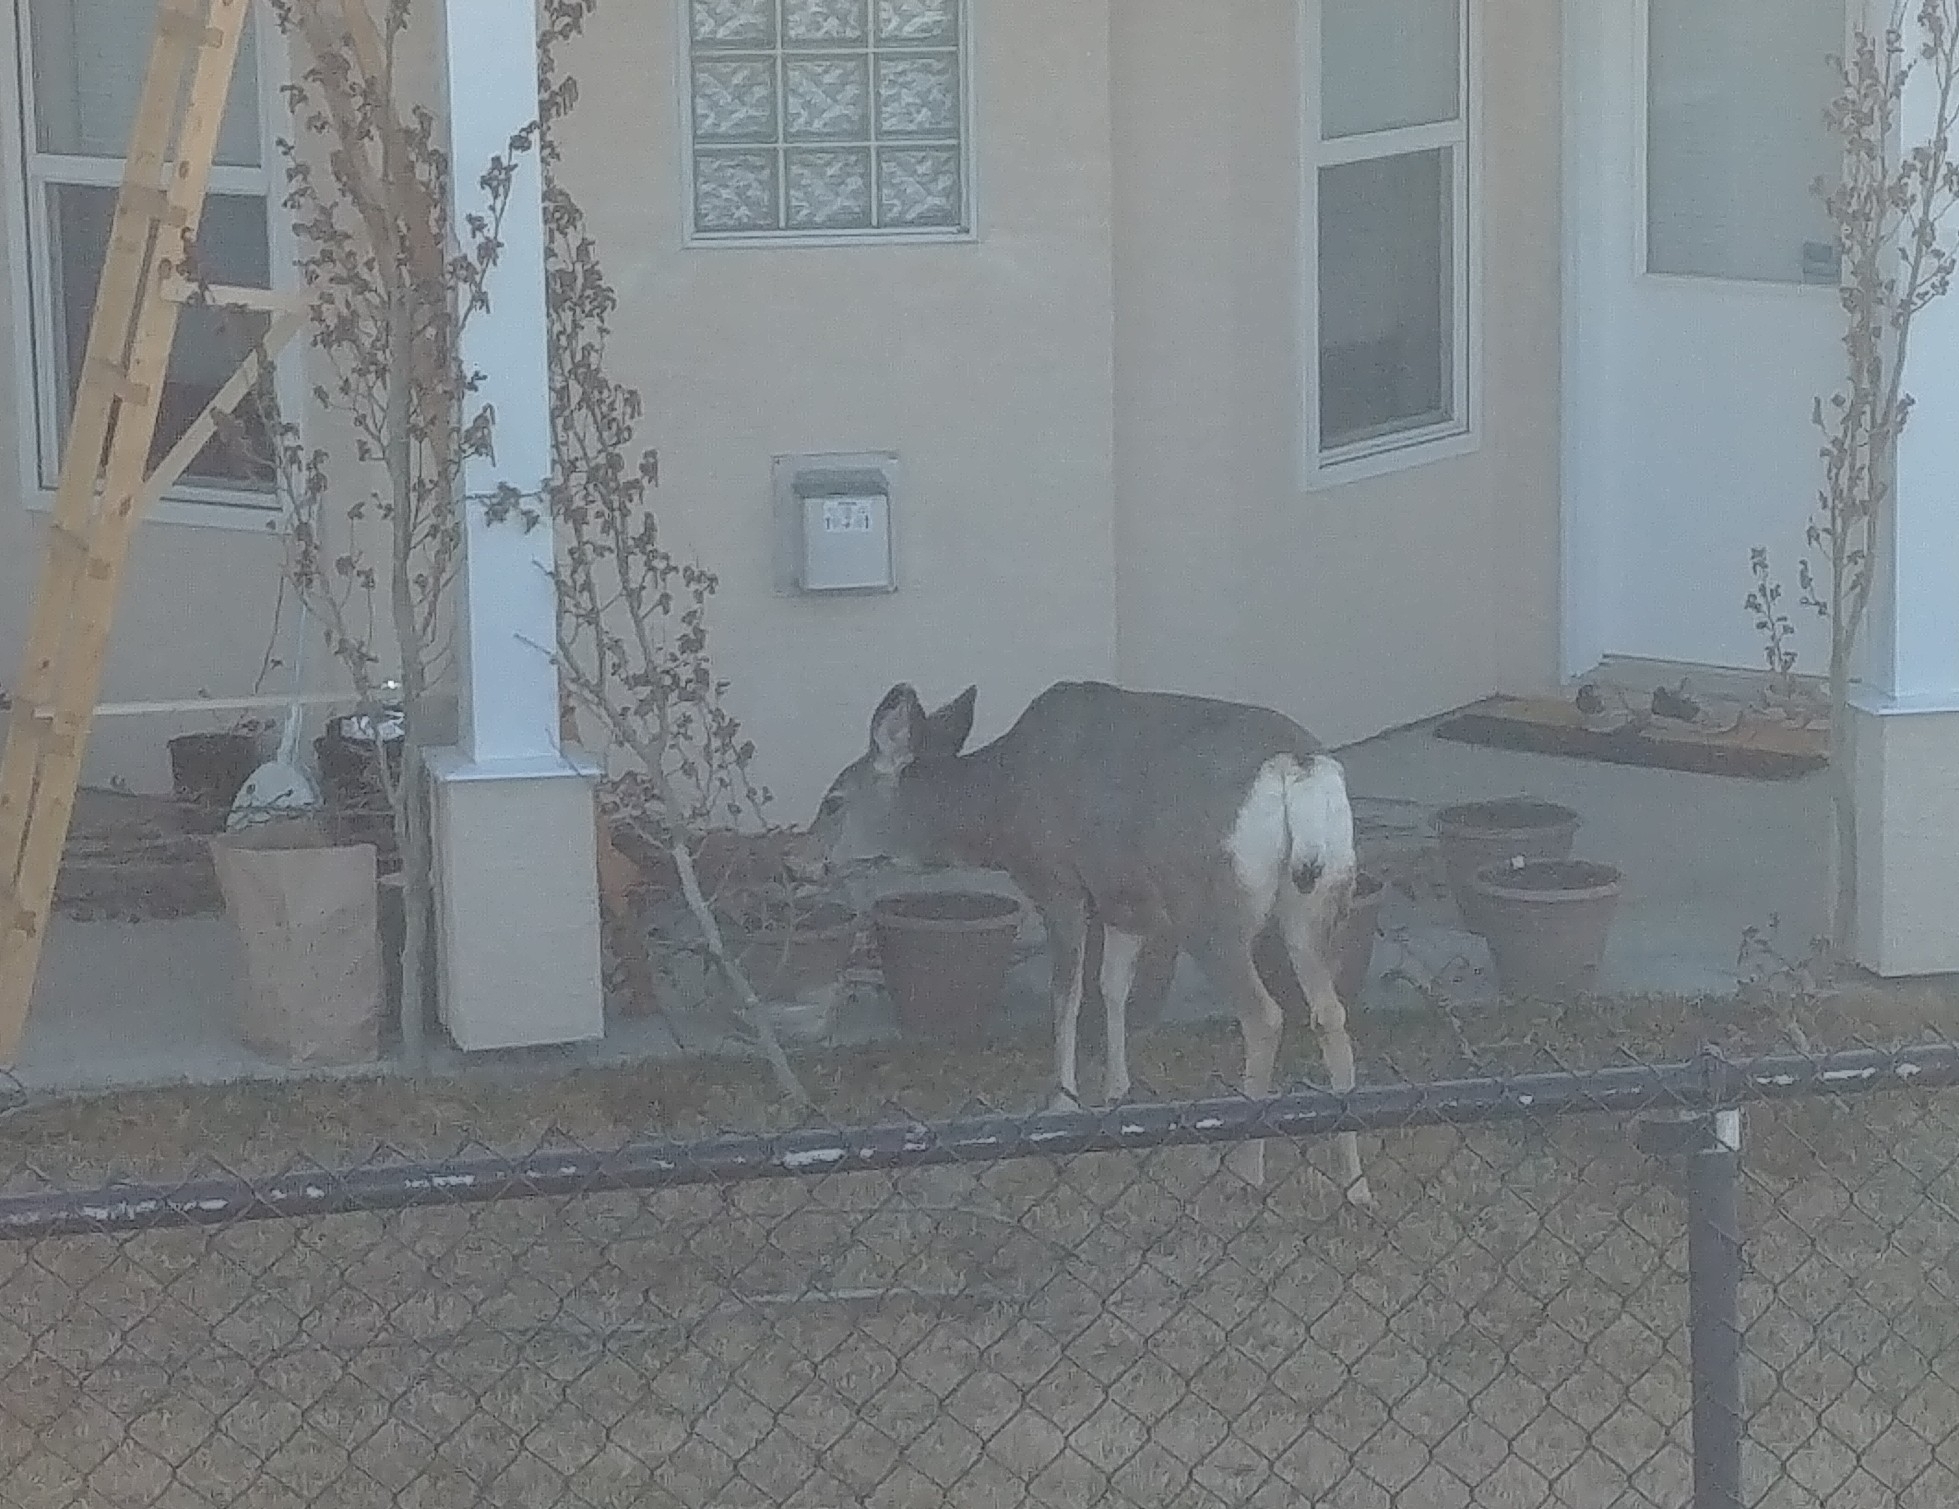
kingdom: Animalia
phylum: Chordata
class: Mammalia
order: Artiodactyla
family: Cervidae
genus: Odocoileus
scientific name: Odocoileus hemionus
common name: Mule deer
